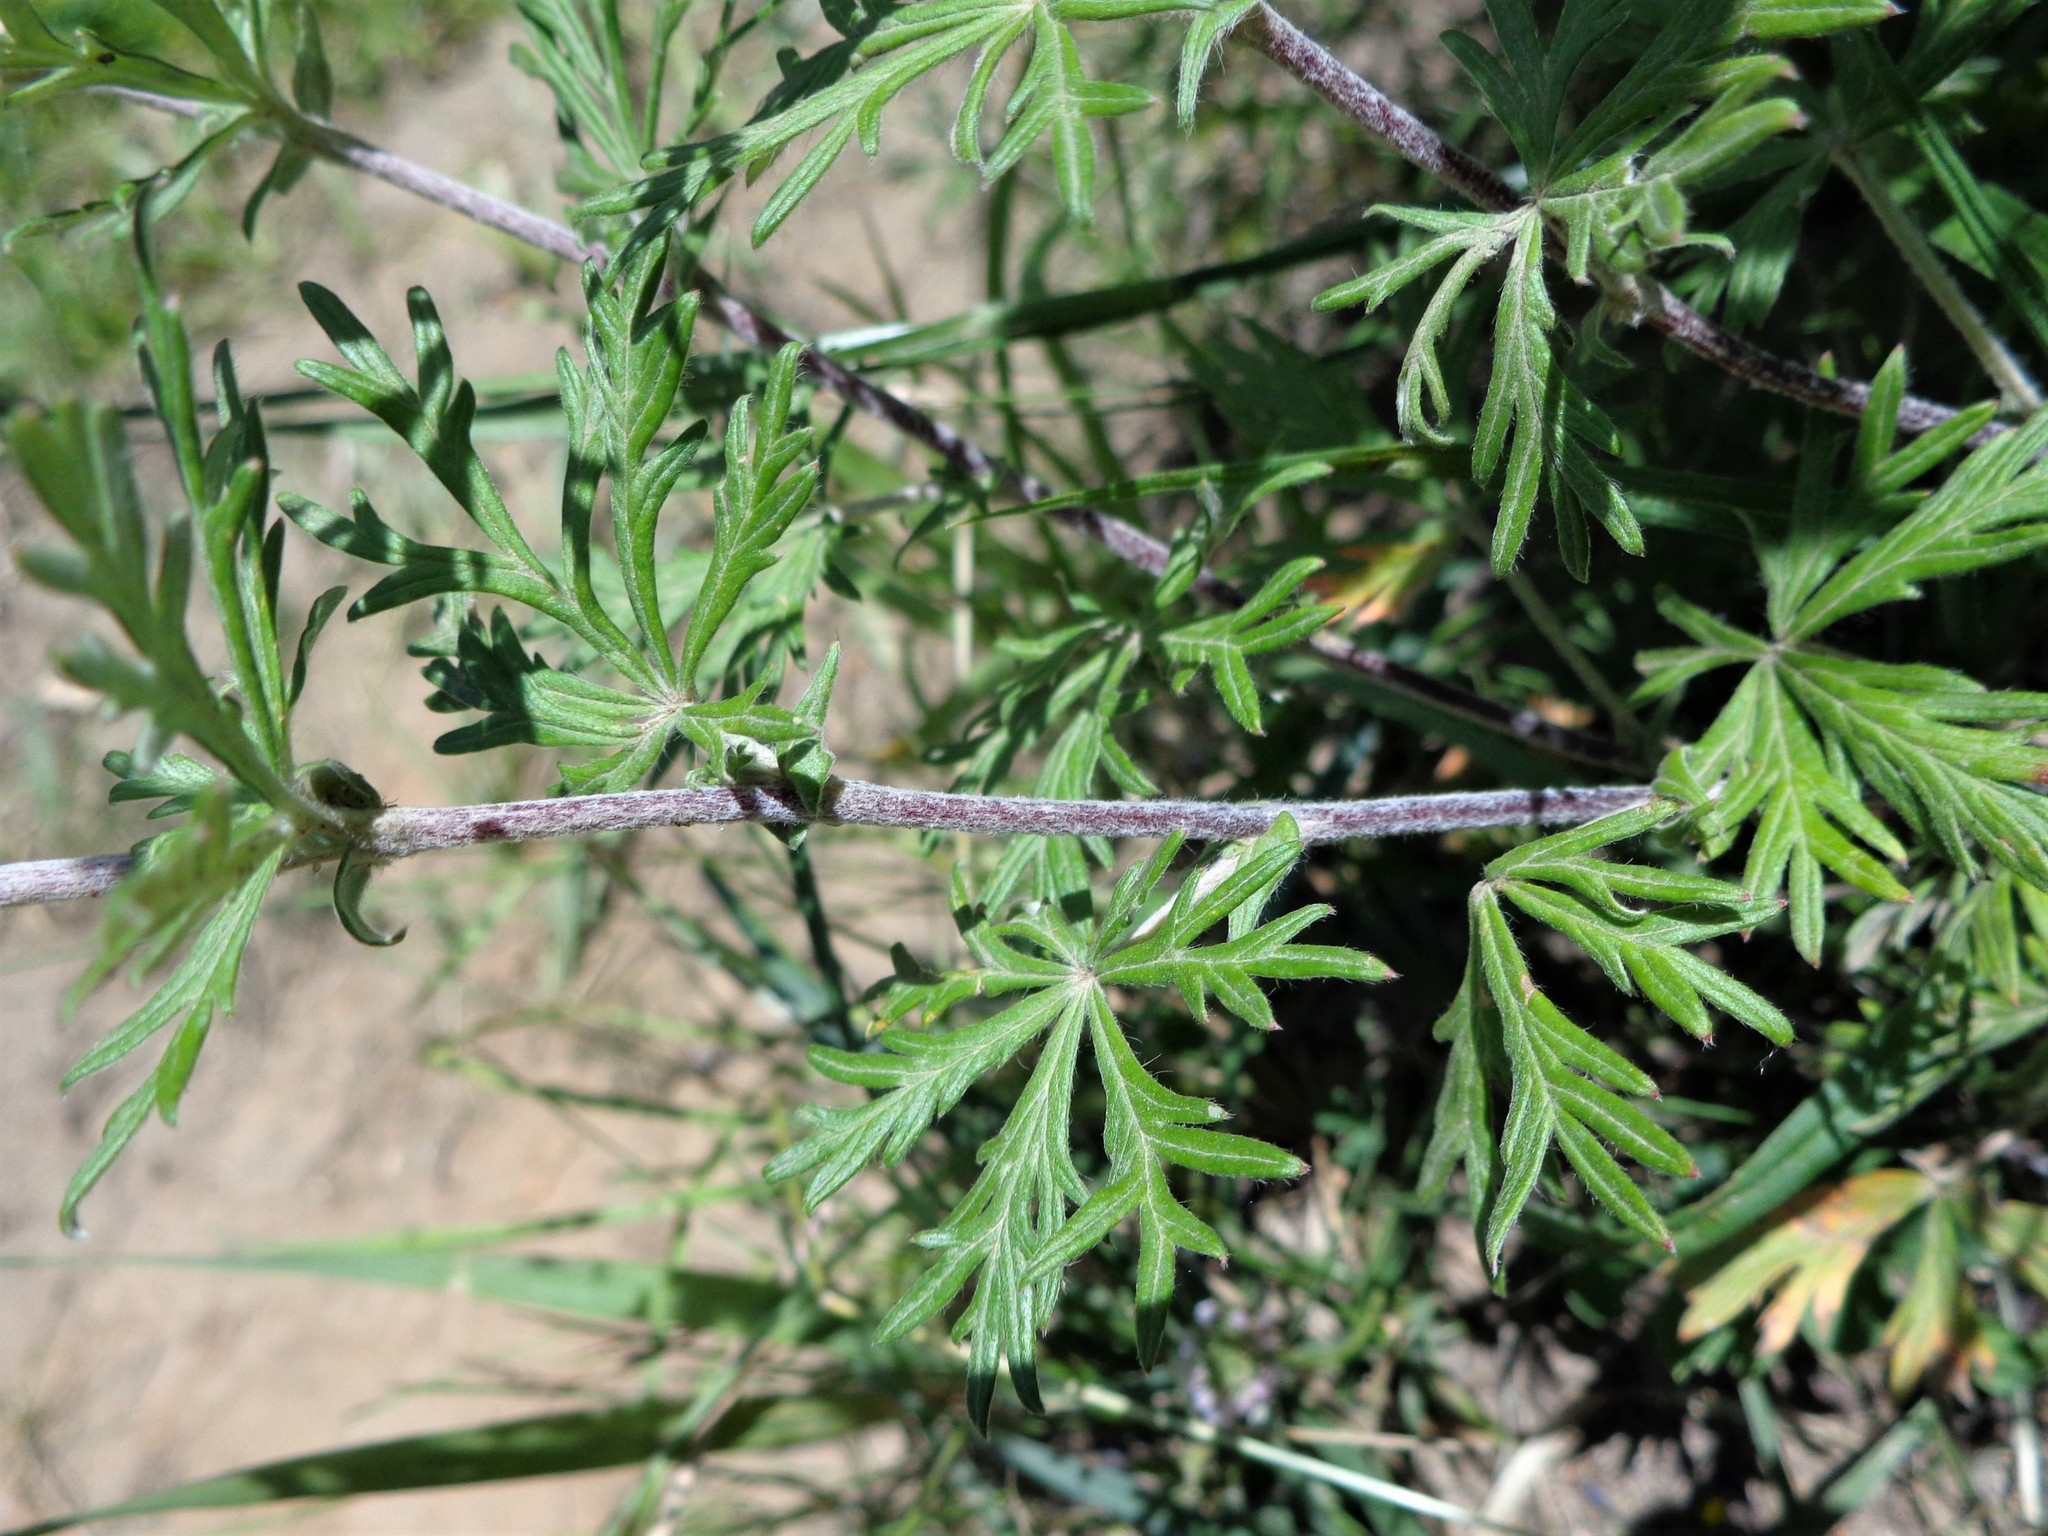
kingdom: Plantae
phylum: Tracheophyta
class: Magnoliopsida
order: Rosales
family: Rosaceae
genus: Potentilla
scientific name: Potentilla argentea
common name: Hoary cinquefoil
